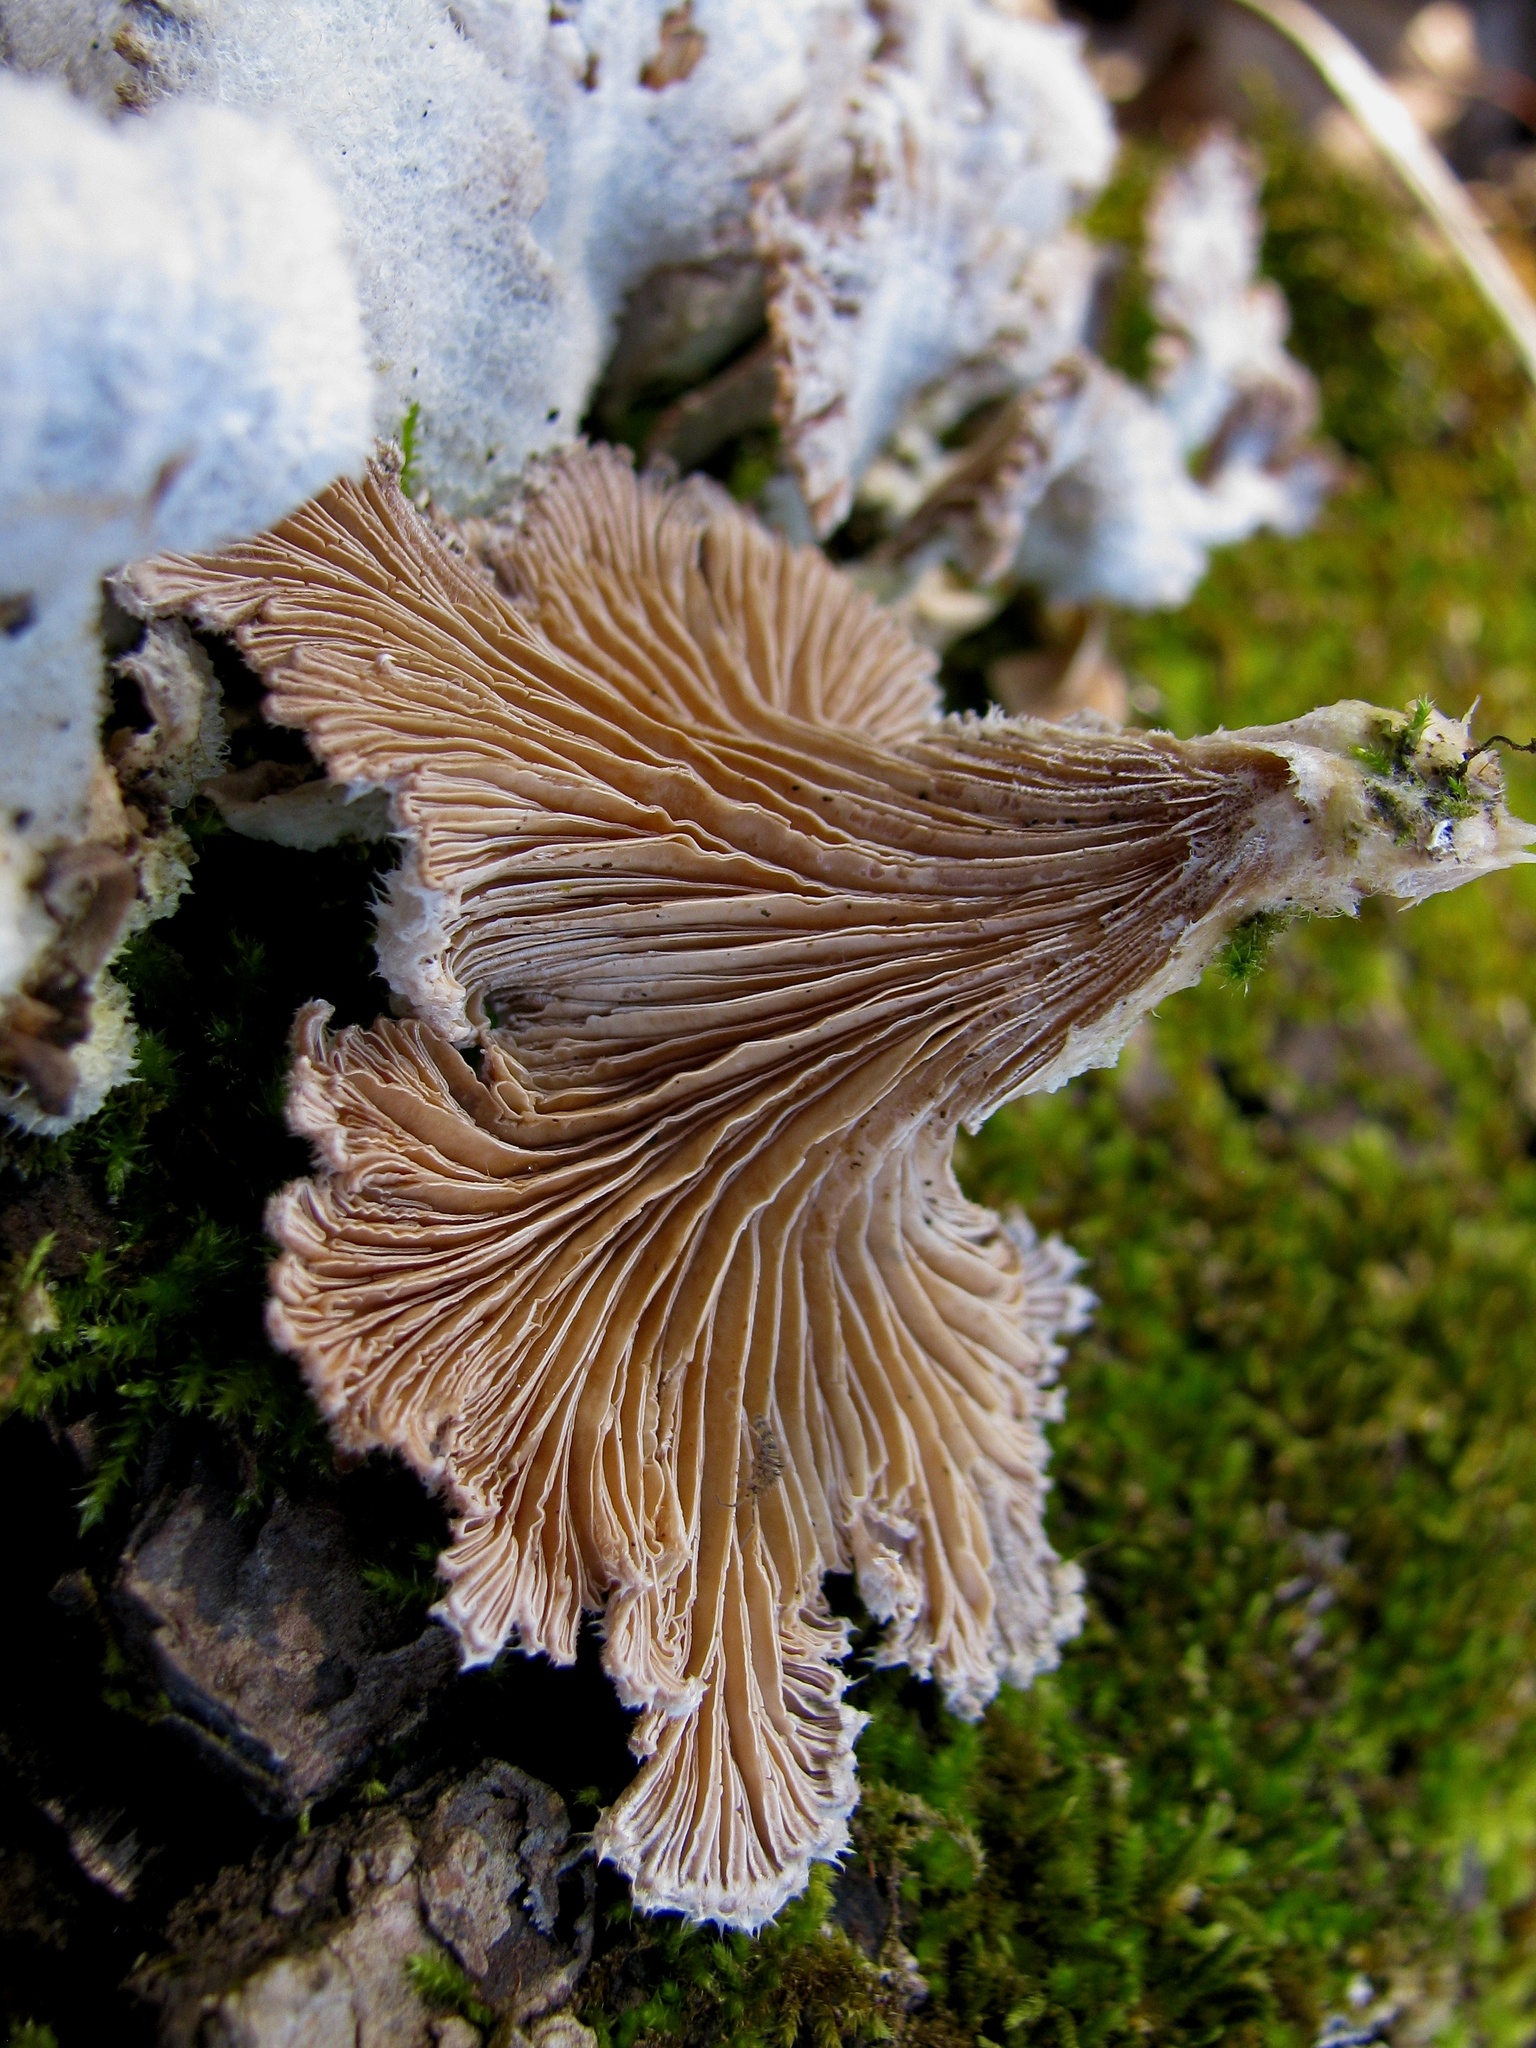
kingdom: Fungi
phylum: Basidiomycota
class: Agaricomycetes
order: Agaricales
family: Schizophyllaceae
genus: Schizophyllum
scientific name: Schizophyllum commune
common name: Common porecrust
